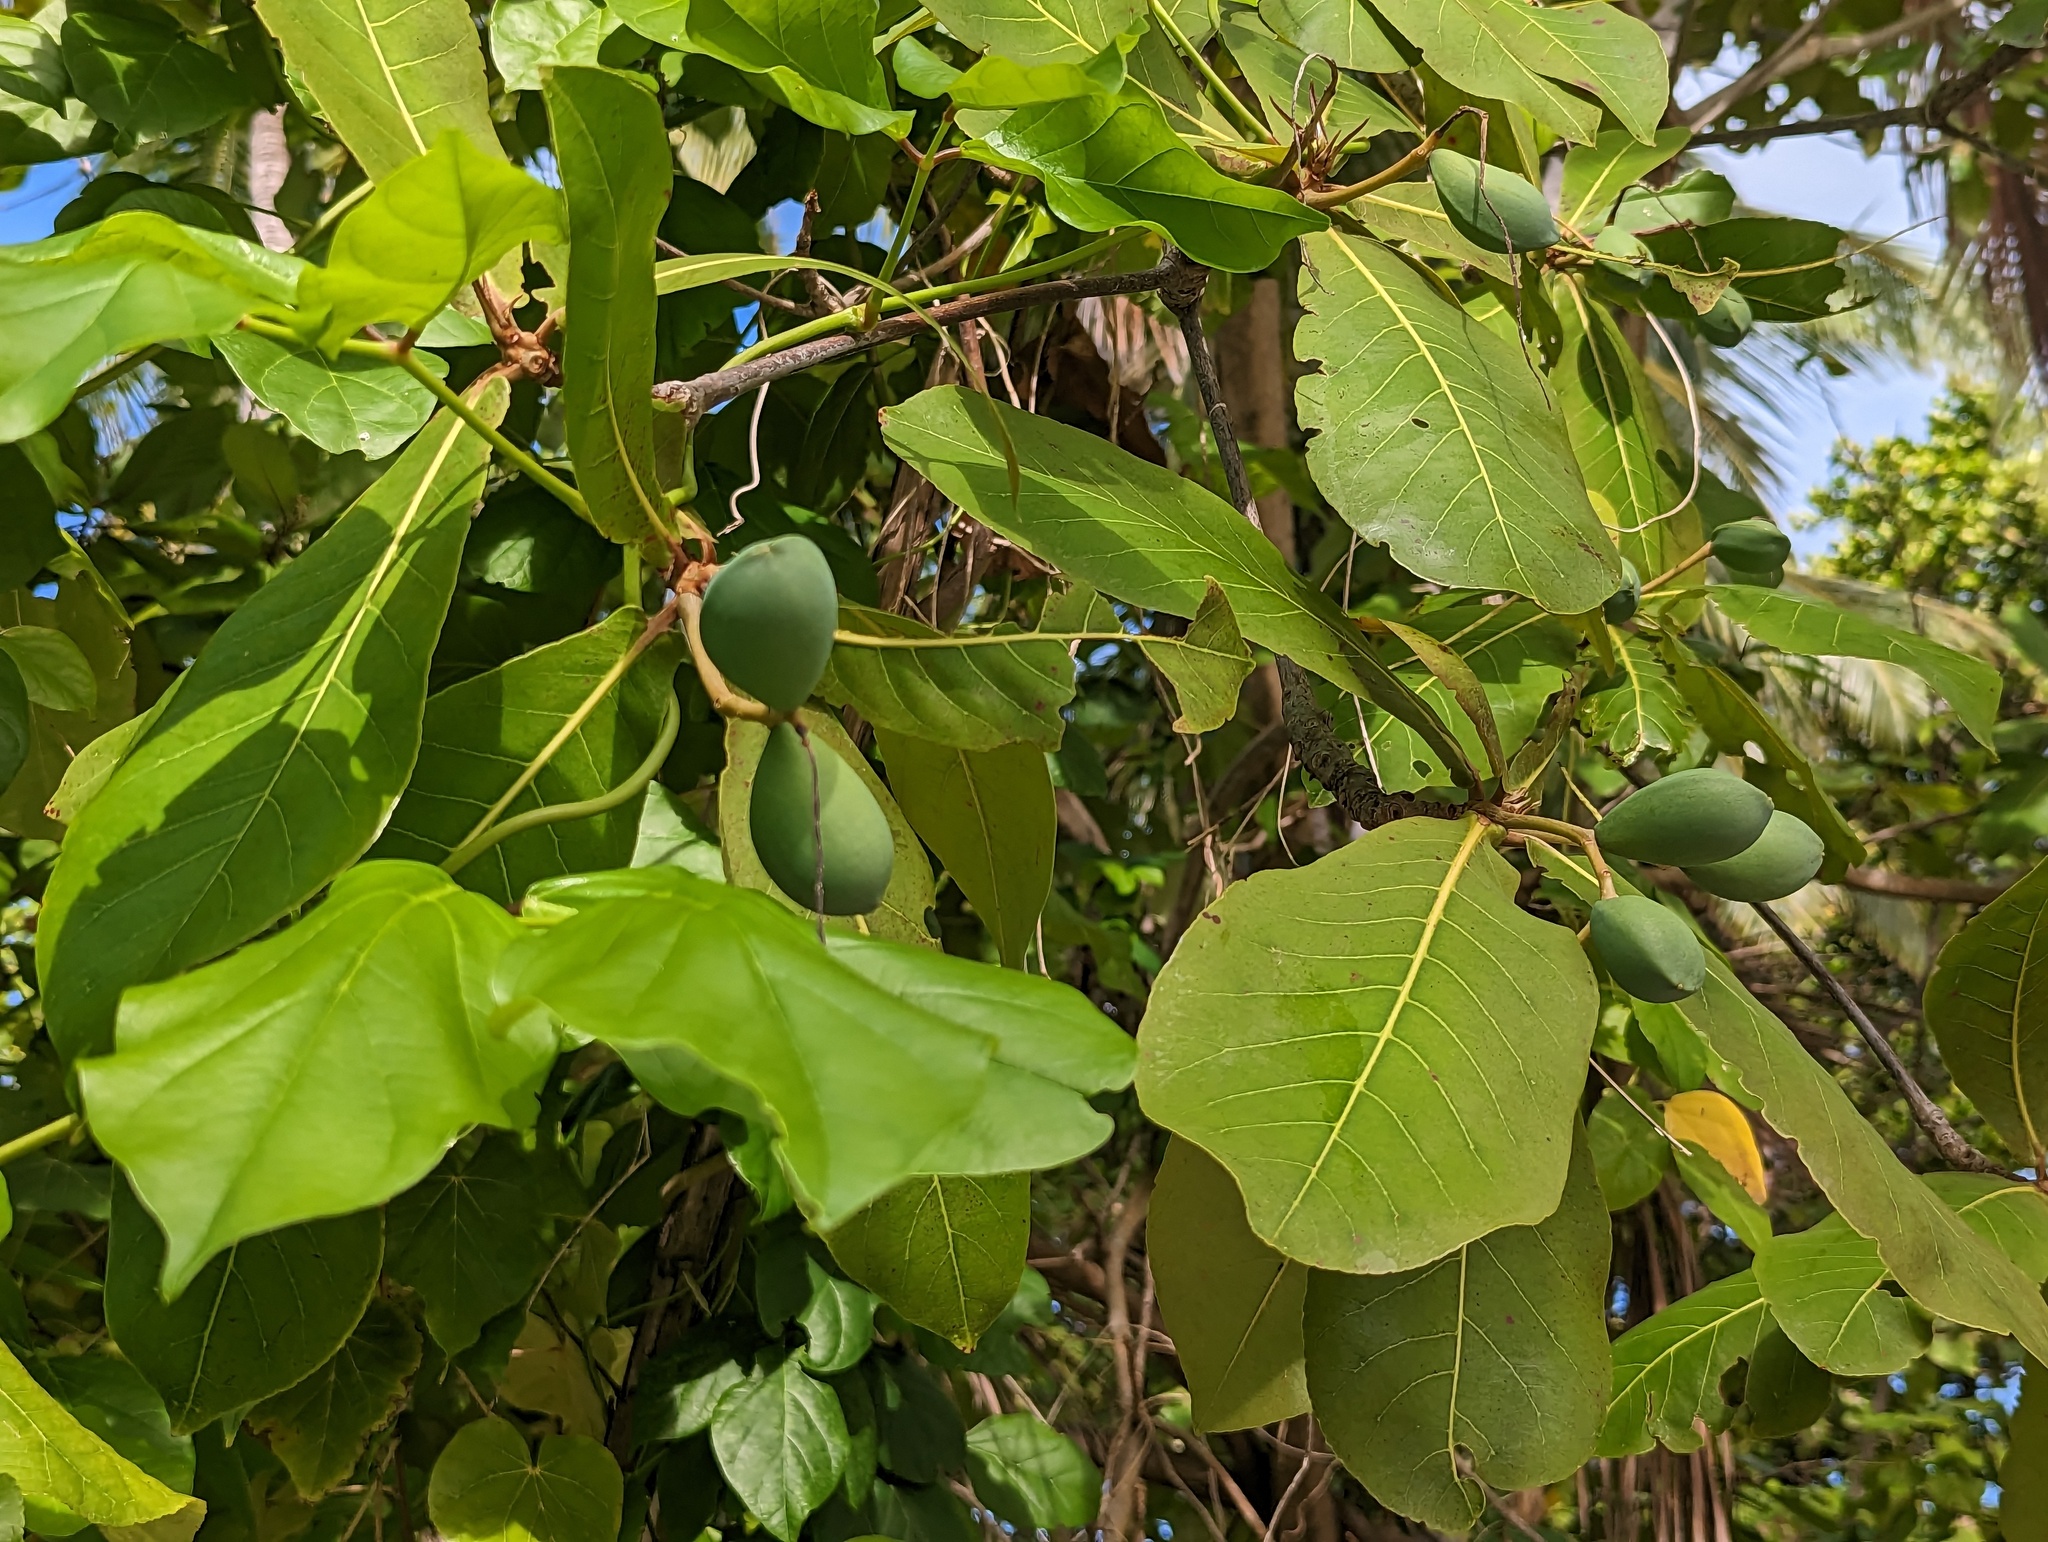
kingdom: Plantae
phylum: Tracheophyta
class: Magnoliopsida
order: Myrtales
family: Combretaceae
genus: Terminalia
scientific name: Terminalia catappa
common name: Tropical almond
